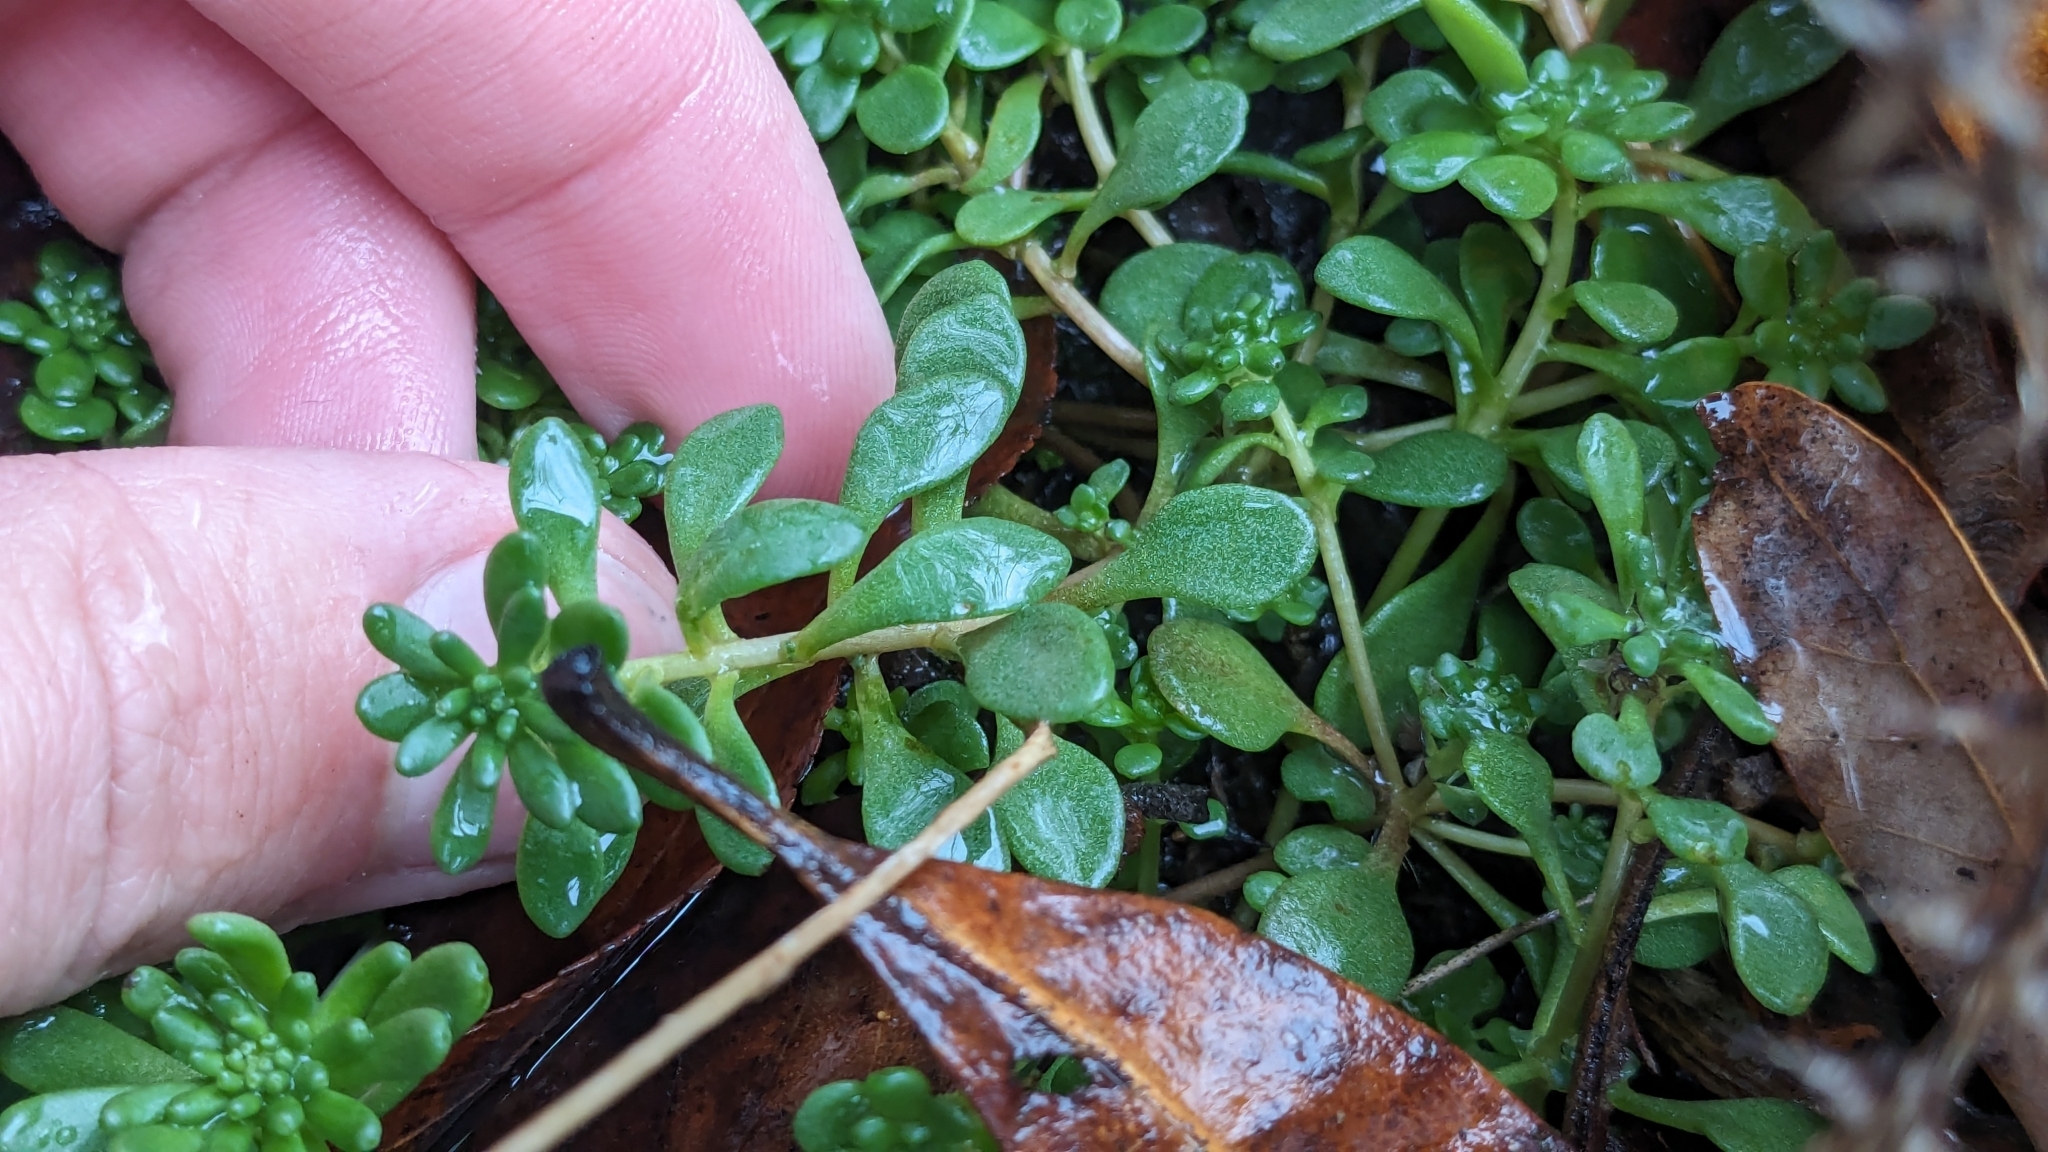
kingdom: Plantae
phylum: Tracheophyta
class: Magnoliopsida
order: Saxifragales
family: Crassulaceae
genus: Sedum
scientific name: Sedum pulchellum
